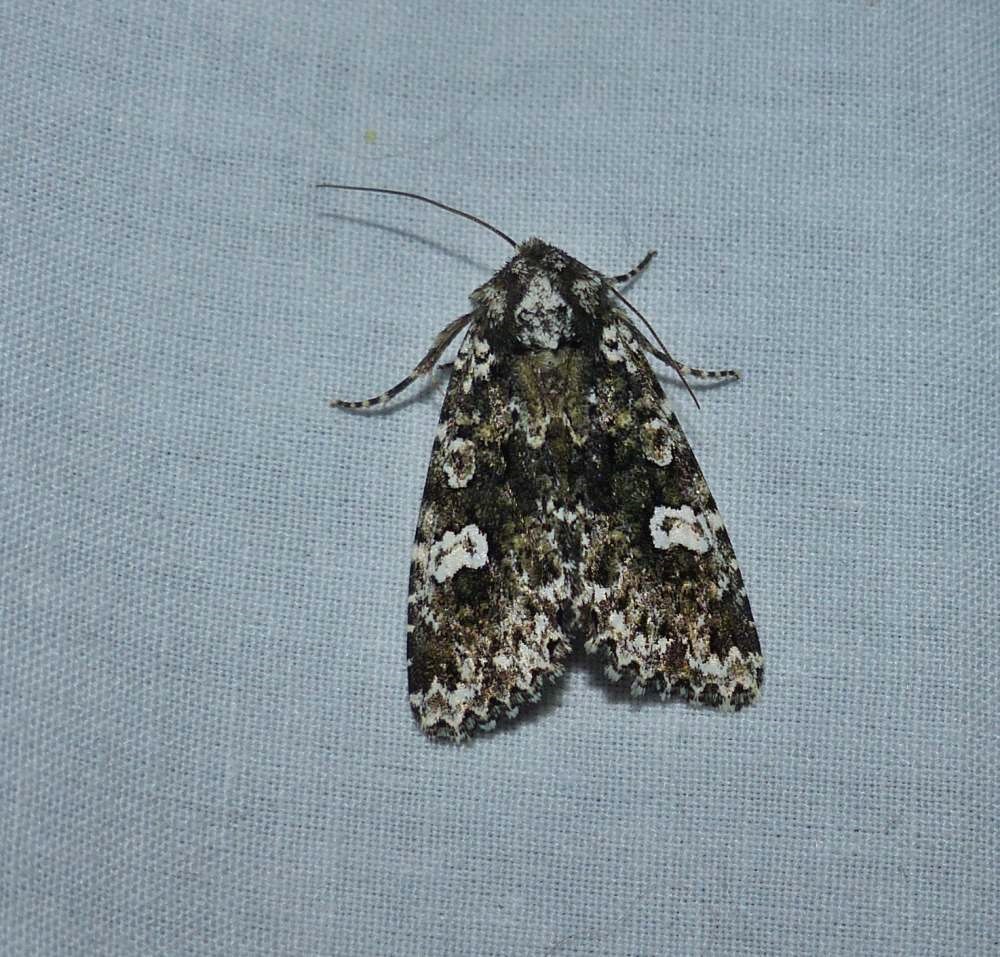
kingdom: Animalia
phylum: Arthropoda
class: Insecta
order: Lepidoptera
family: Noctuidae
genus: Melanchra
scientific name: Melanchra adjuncta
